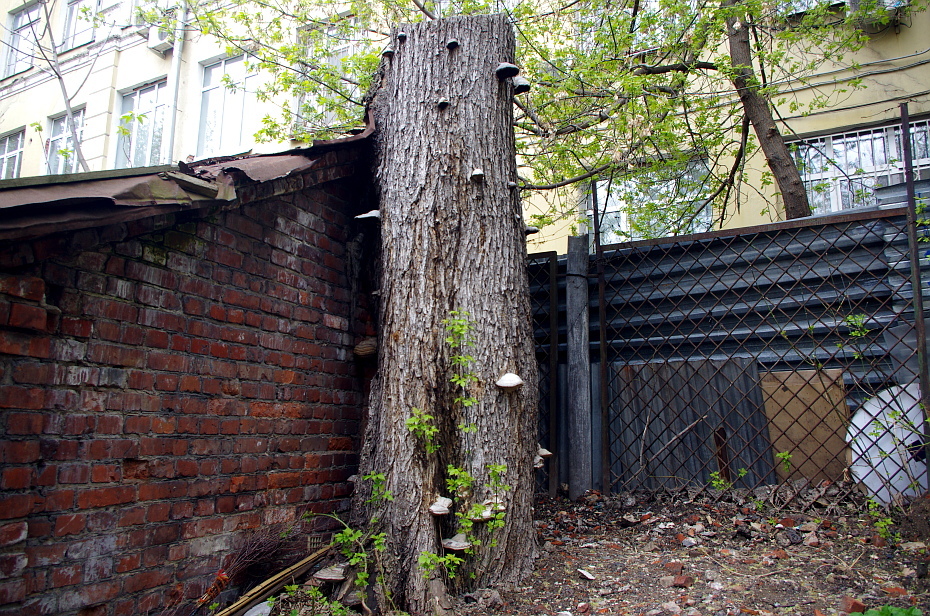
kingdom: Fungi
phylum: Basidiomycota
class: Agaricomycetes
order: Polyporales
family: Polyporaceae
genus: Fomes
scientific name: Fomes fomentarius
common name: Hoof fungus
